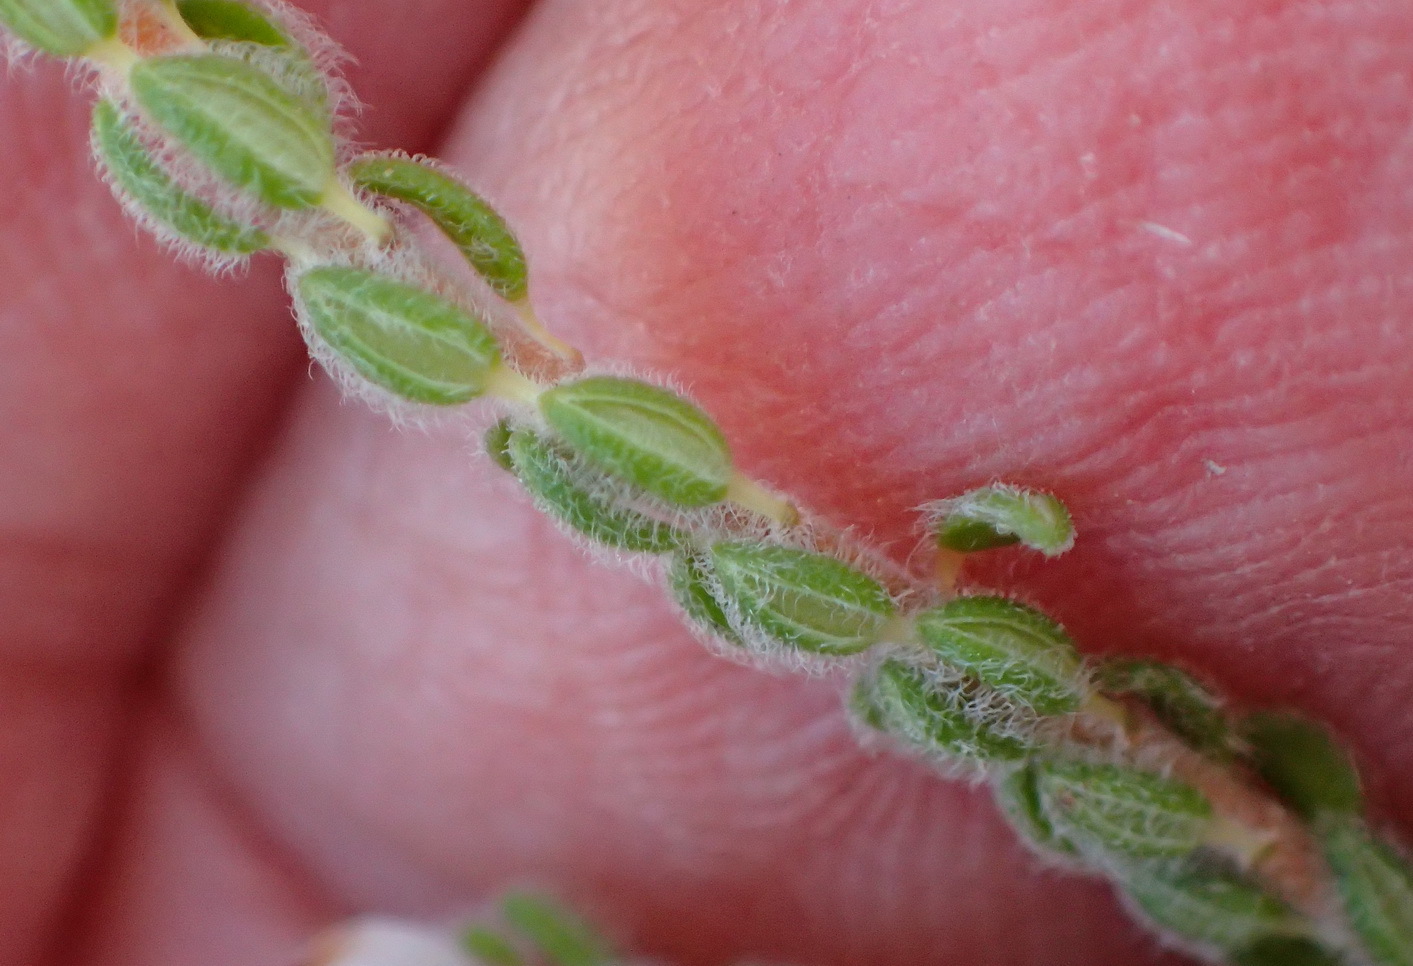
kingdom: Plantae
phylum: Tracheophyta
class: Magnoliopsida
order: Ericales
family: Ericaceae
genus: Erica
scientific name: Erica oreotragus
